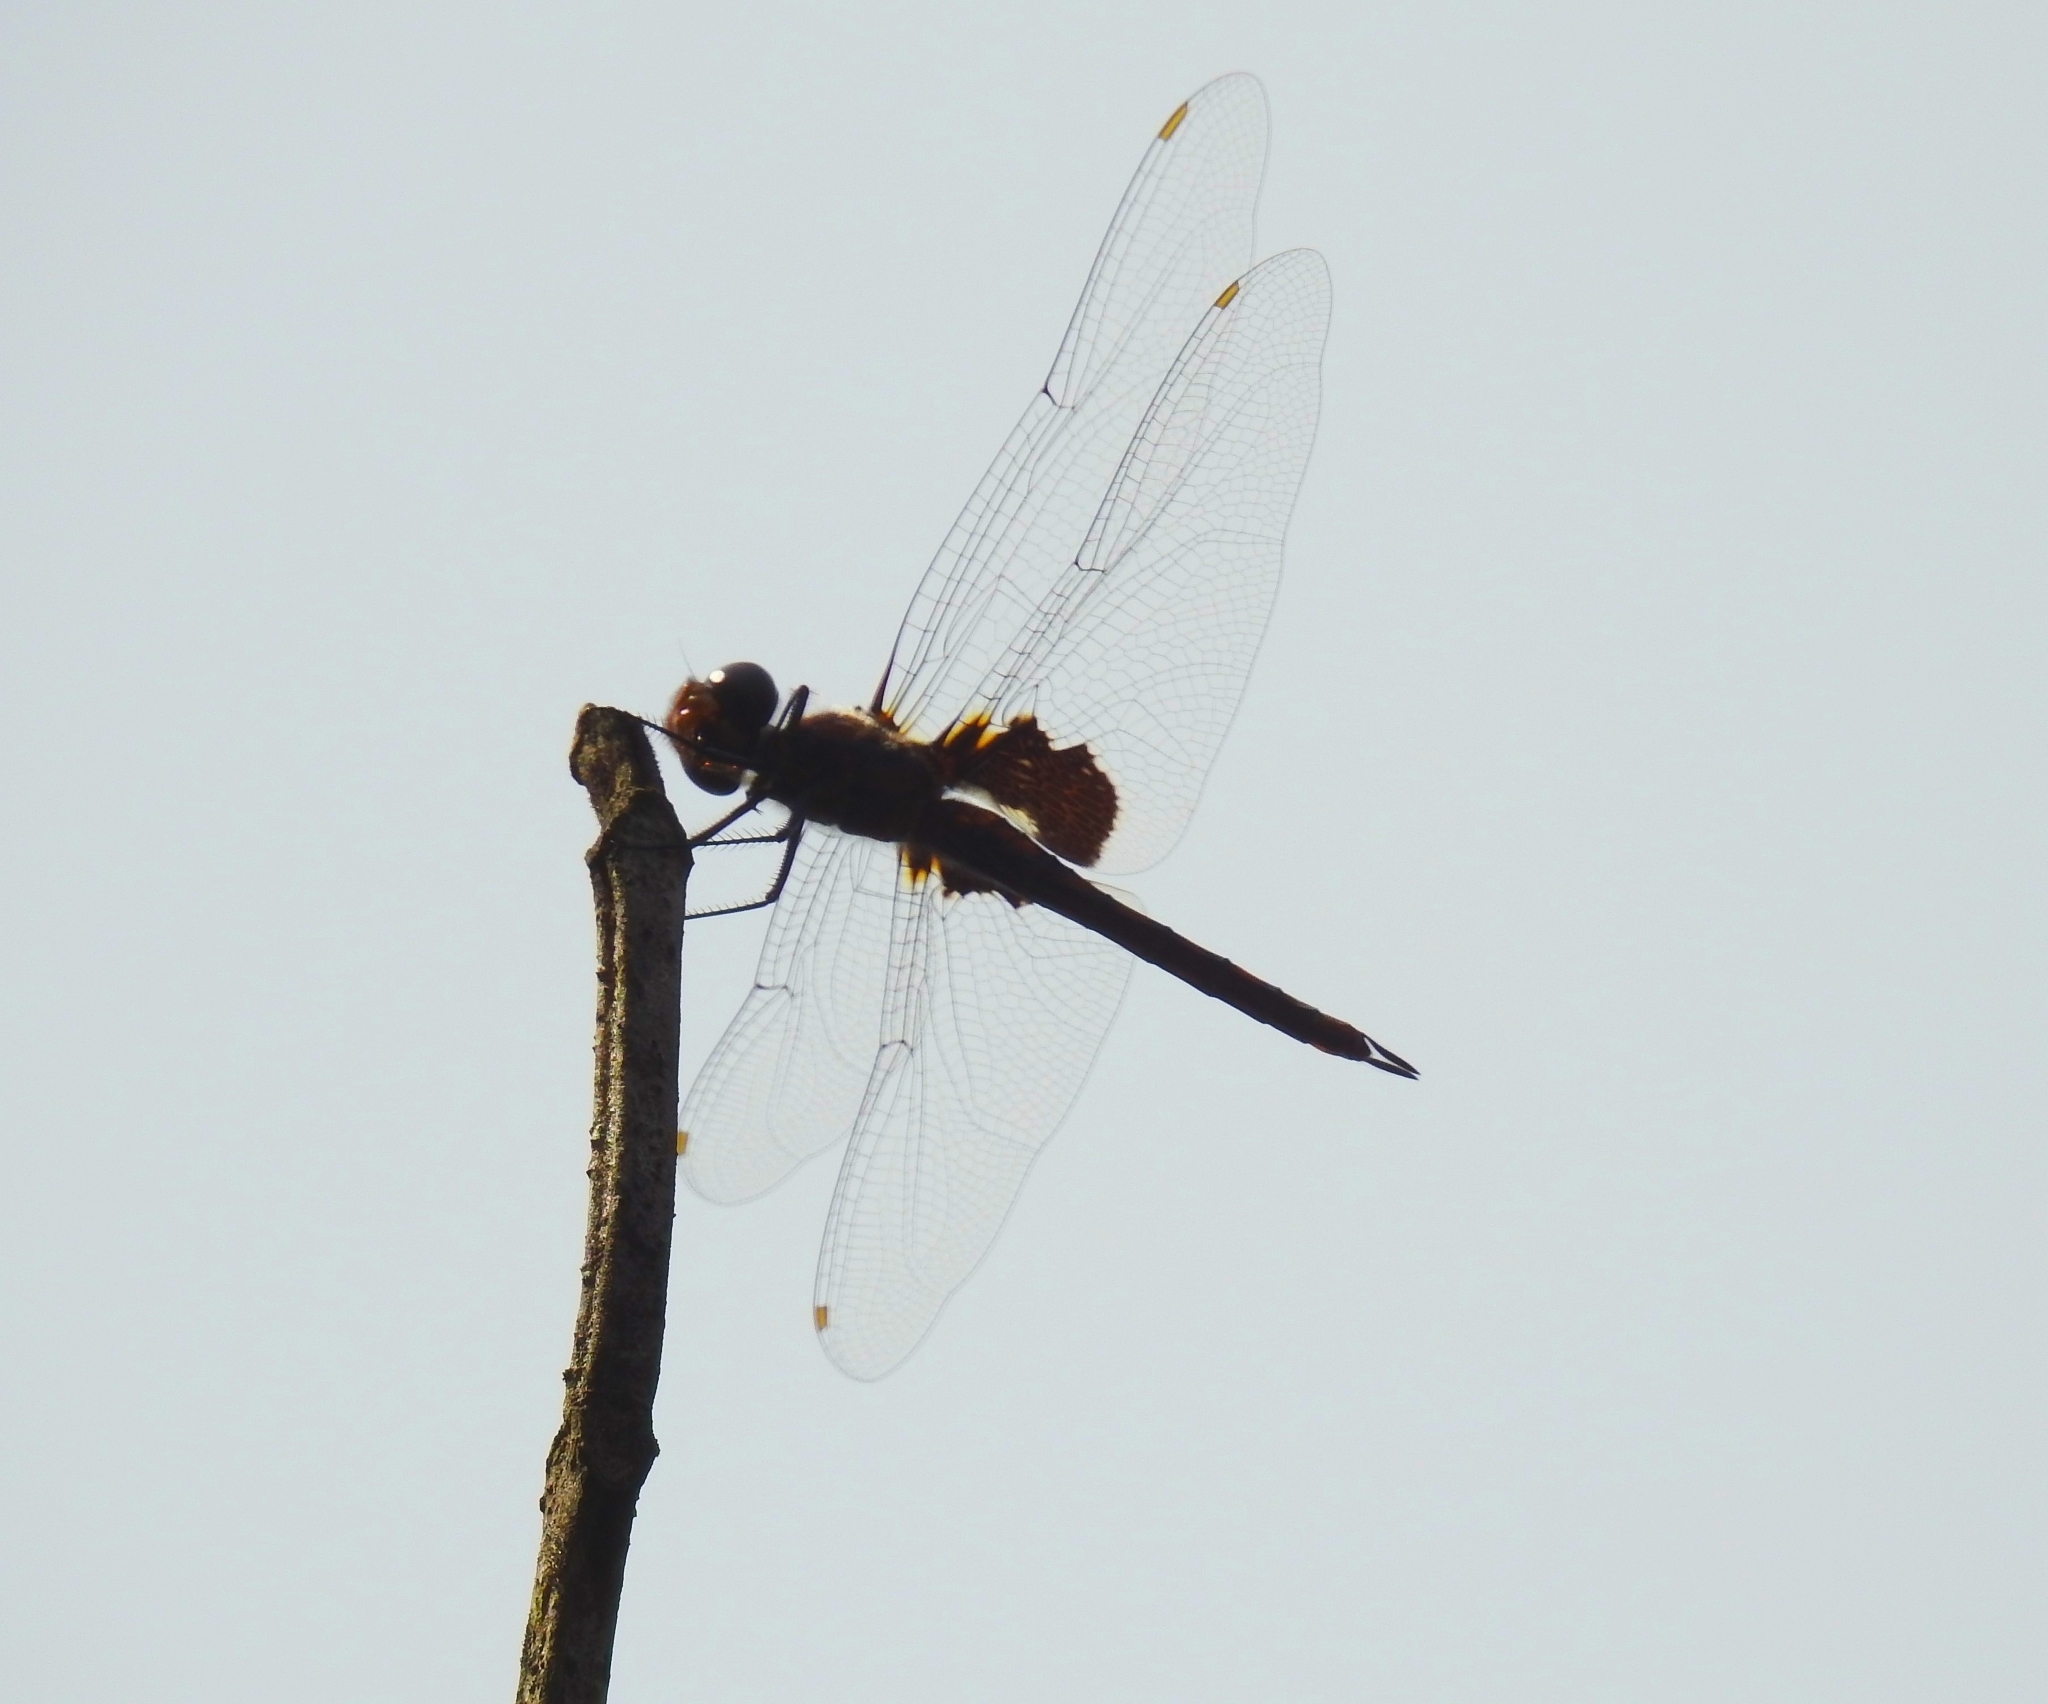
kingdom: Animalia
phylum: Arthropoda
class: Insecta
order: Odonata
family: Libellulidae
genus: Tramea
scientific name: Tramea limbata
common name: Ferruginous glider
